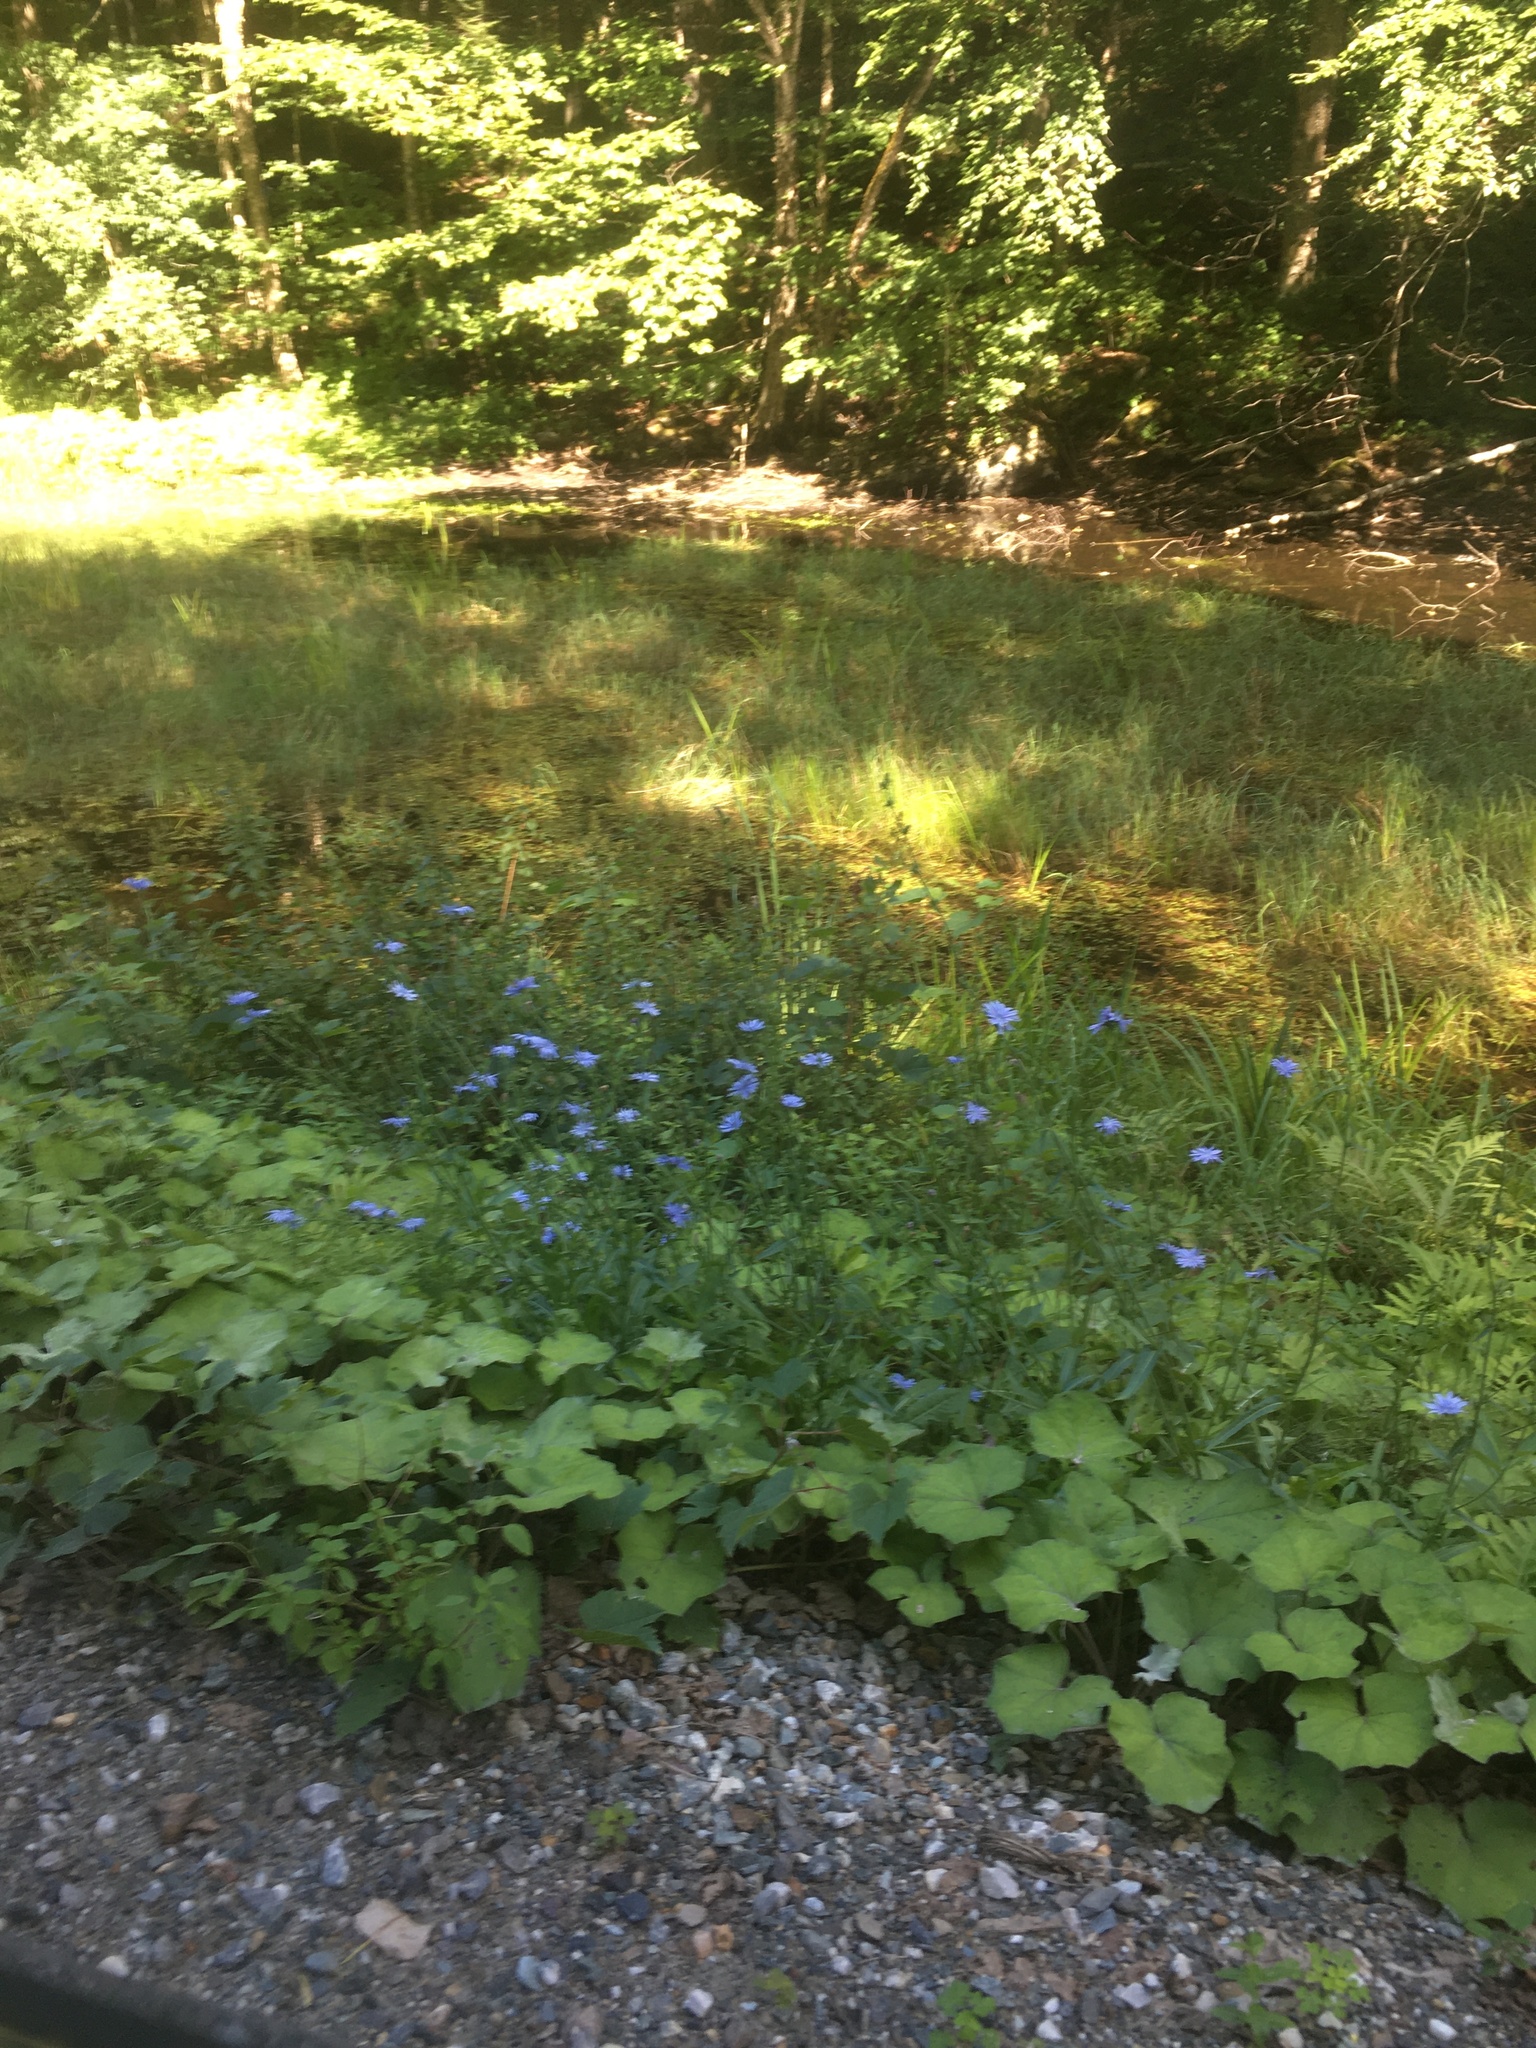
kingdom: Plantae
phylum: Tracheophyta
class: Magnoliopsida
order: Asterales
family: Asteraceae
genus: Cichorium
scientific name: Cichorium intybus
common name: Chicory
